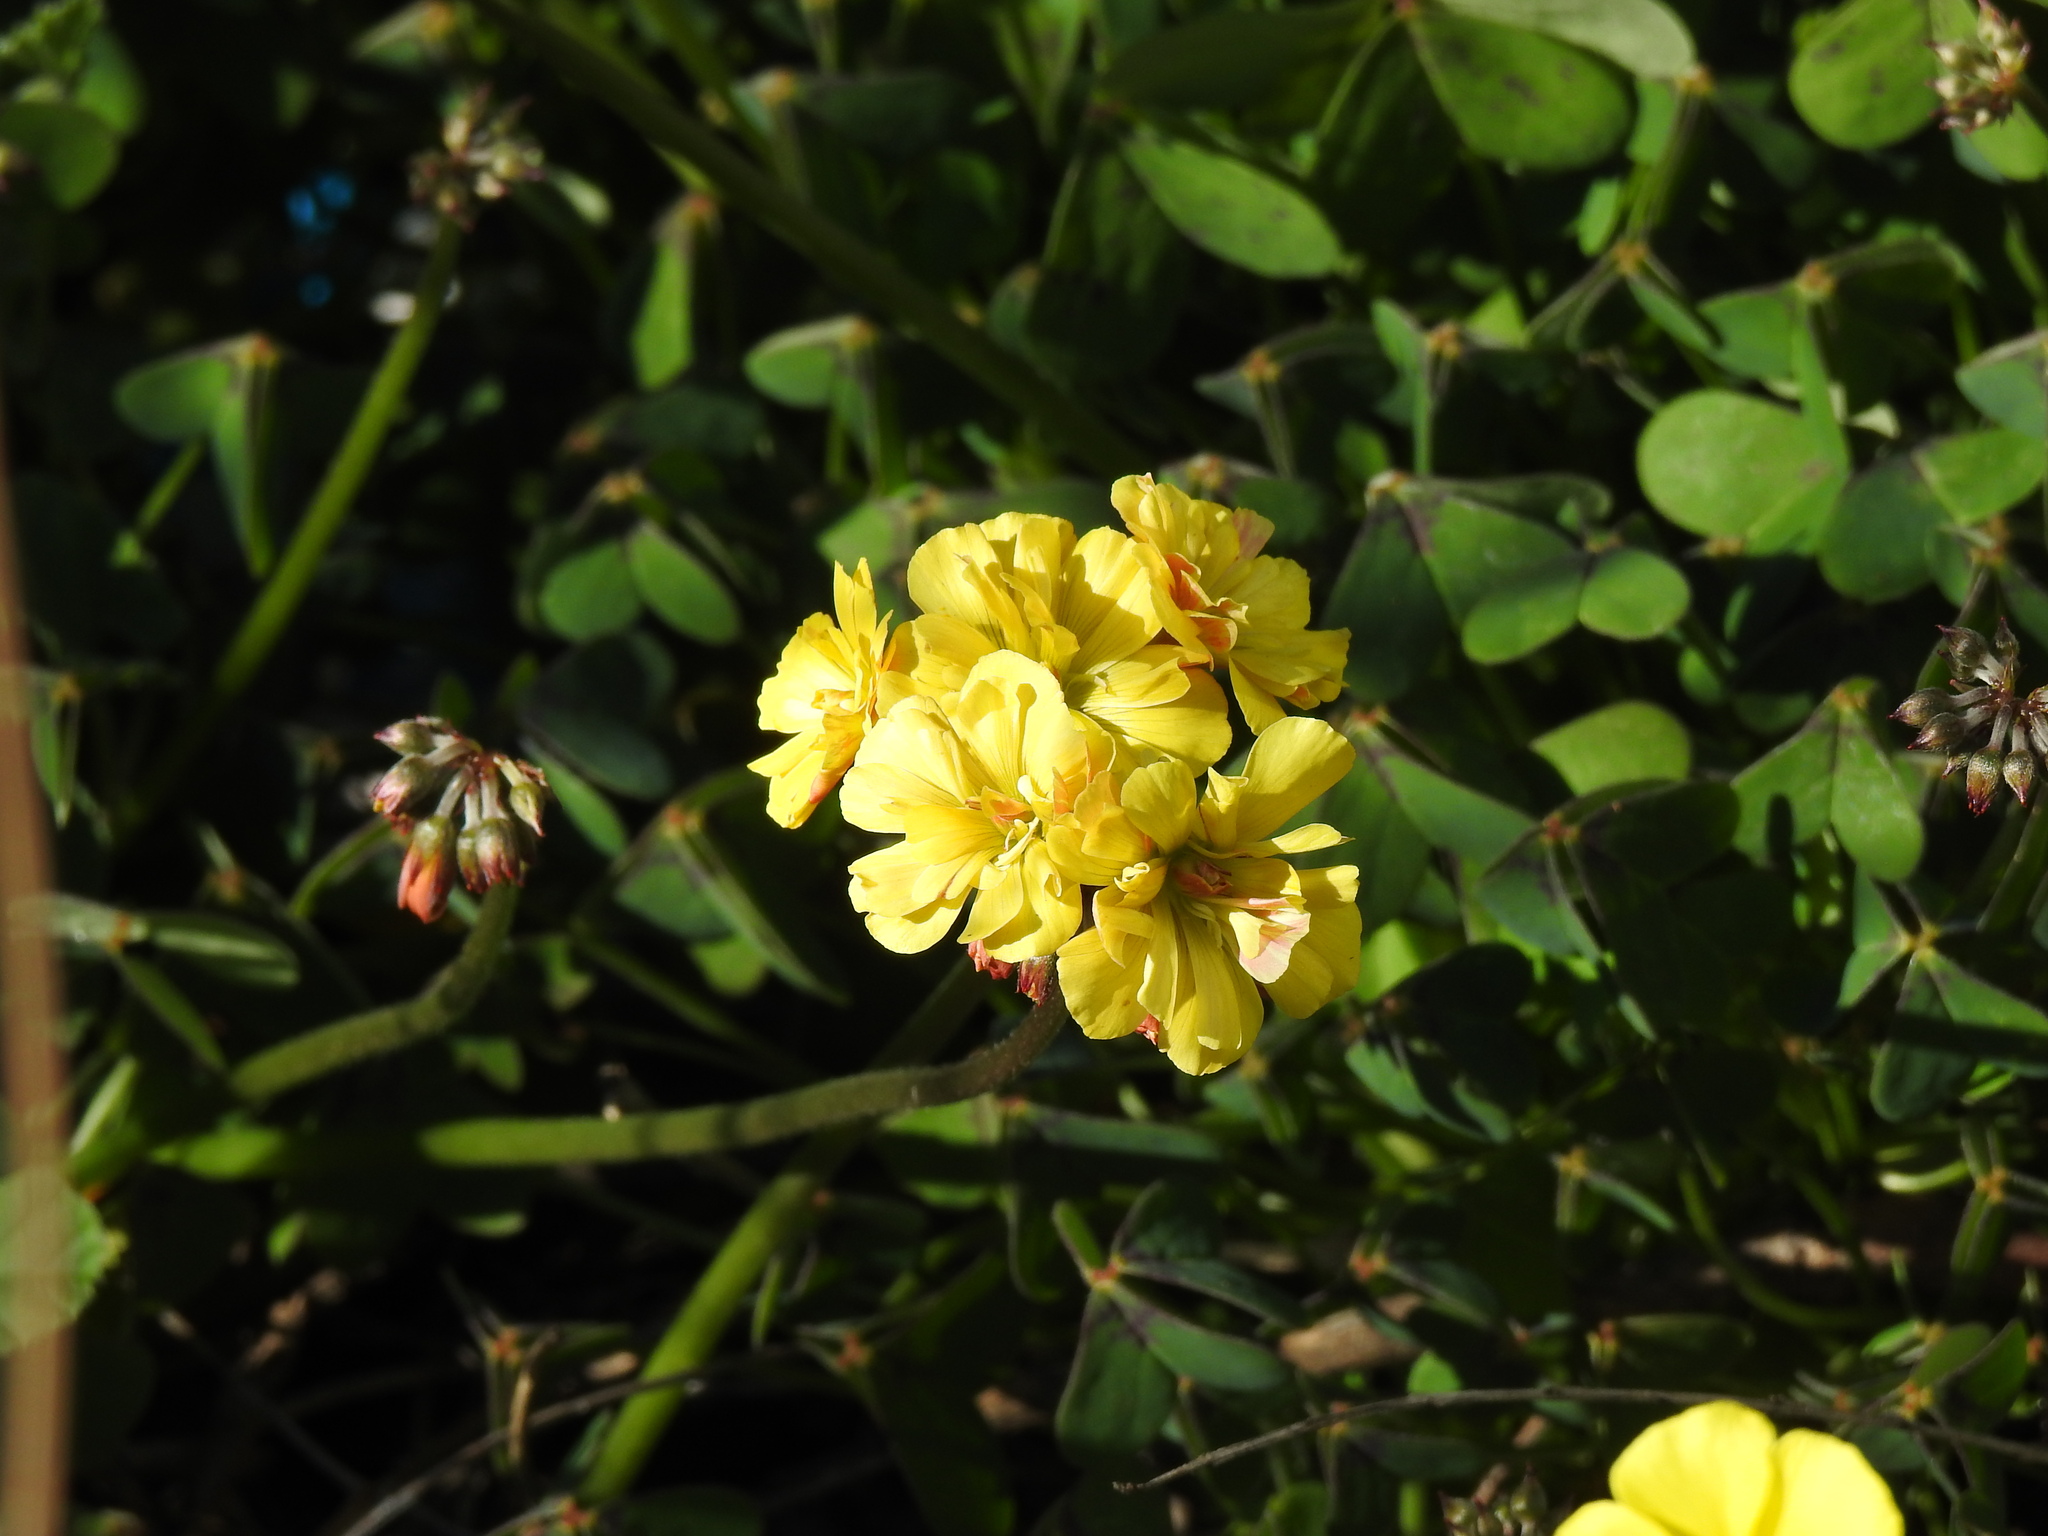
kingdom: Plantae
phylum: Tracheophyta
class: Magnoliopsida
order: Oxalidales
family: Oxalidaceae
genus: Oxalis
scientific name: Oxalis pes-caprae
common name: Bermuda-buttercup
